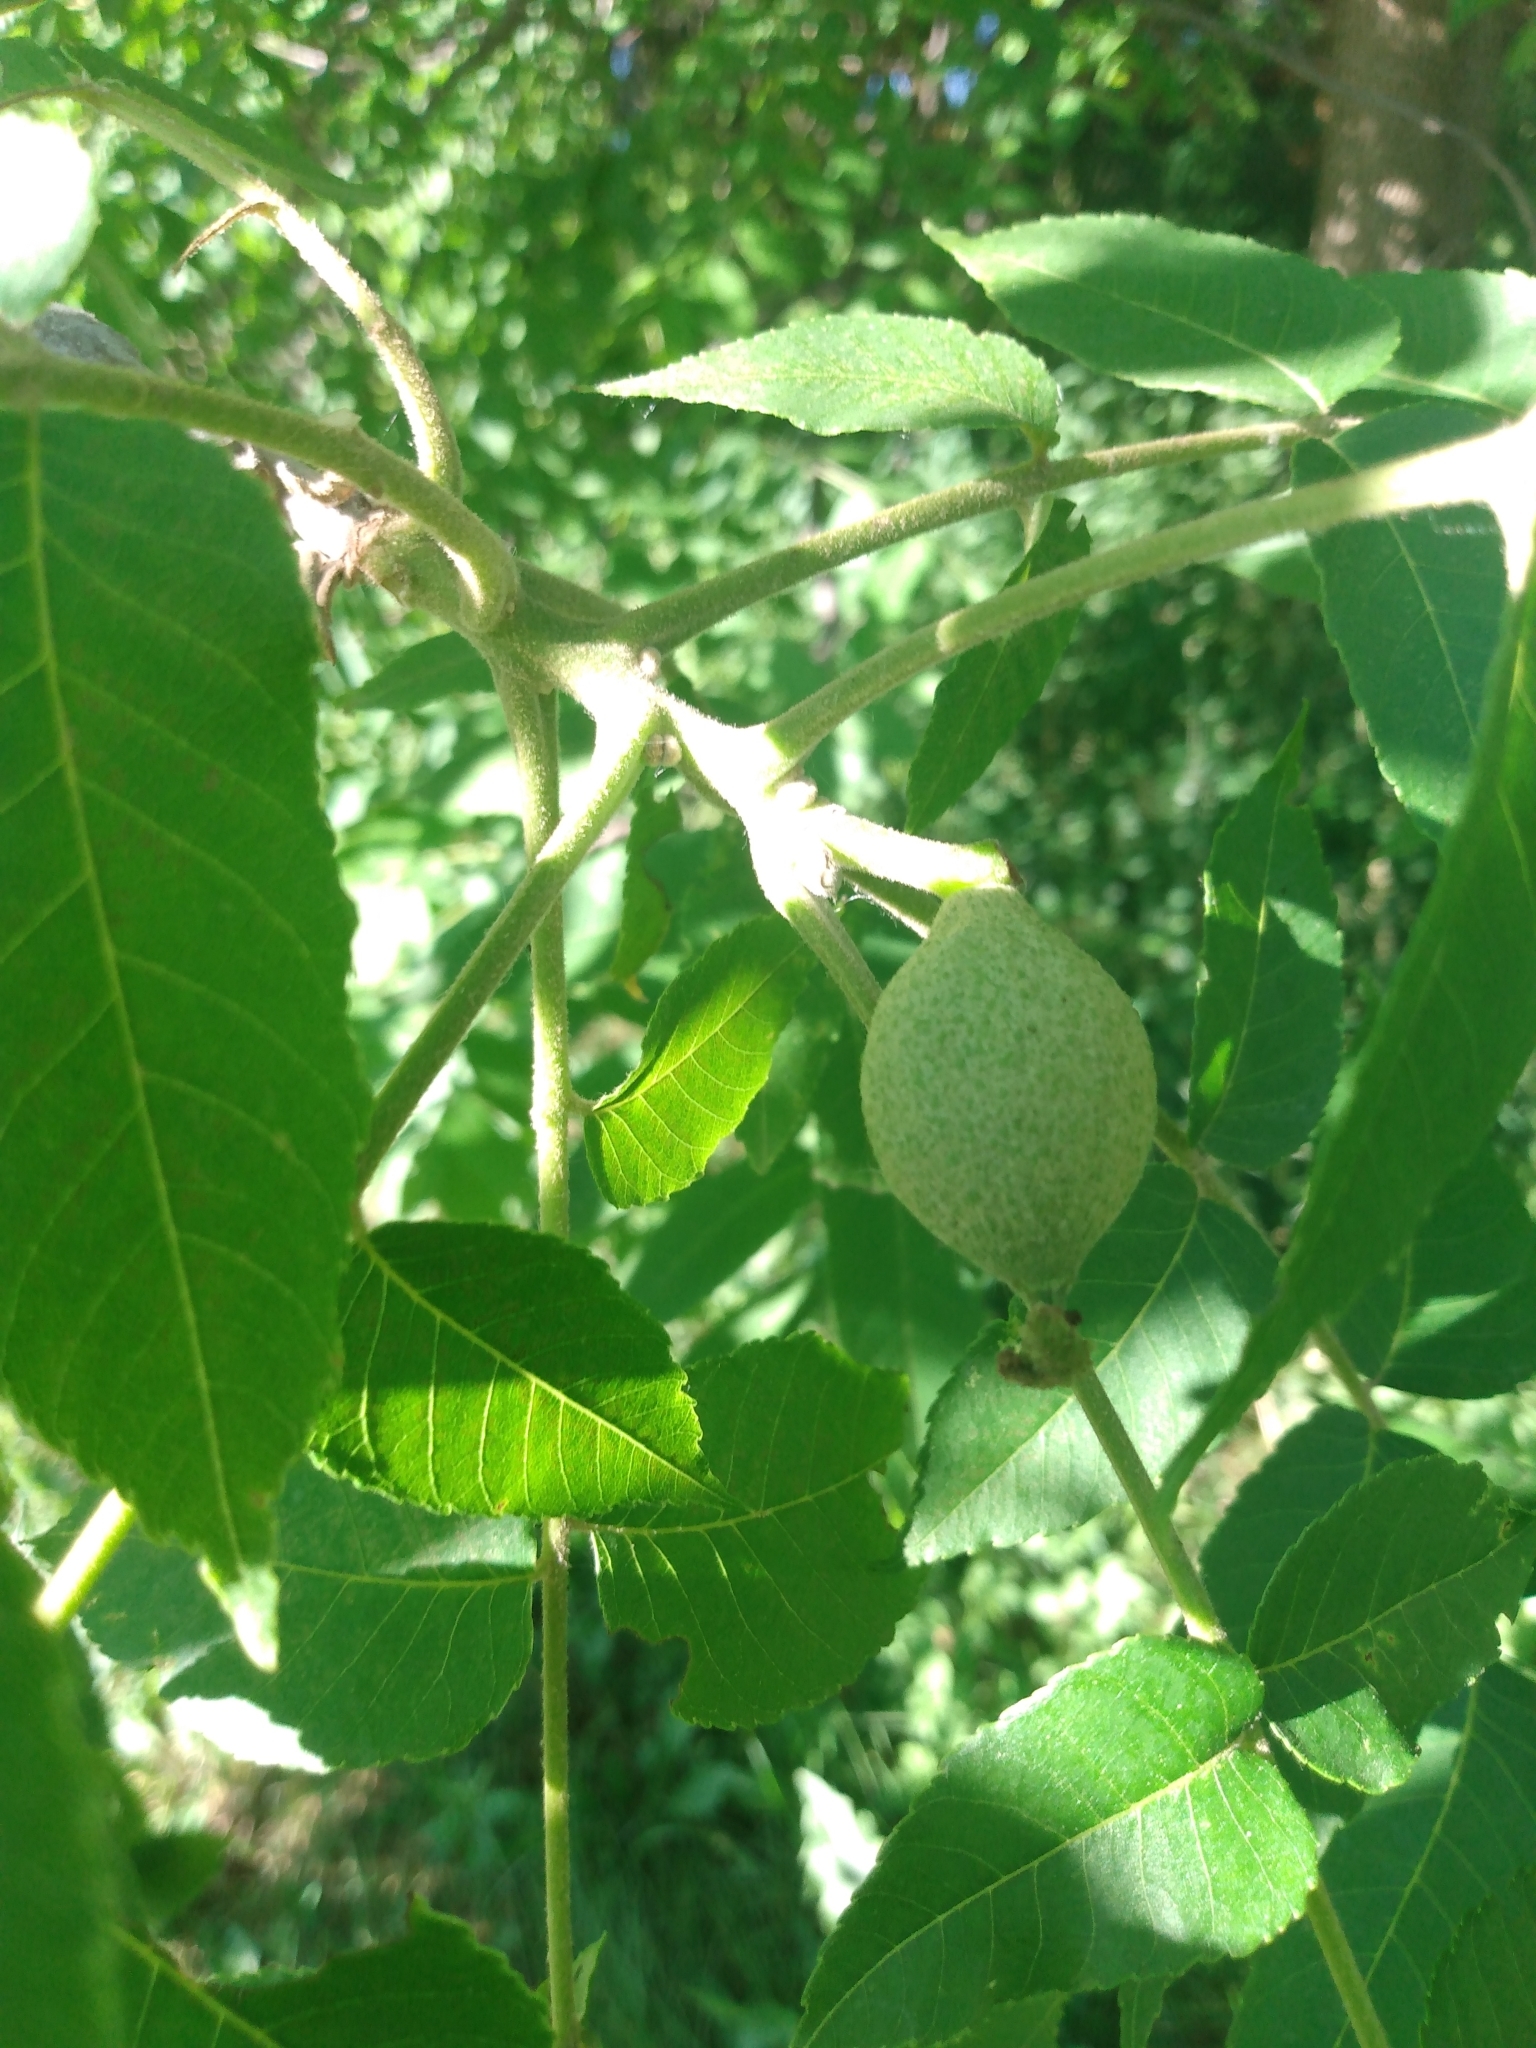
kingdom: Plantae
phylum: Tracheophyta
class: Magnoliopsida
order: Fagales
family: Juglandaceae
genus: Juglans
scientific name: Juglans nigra
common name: Black walnut
